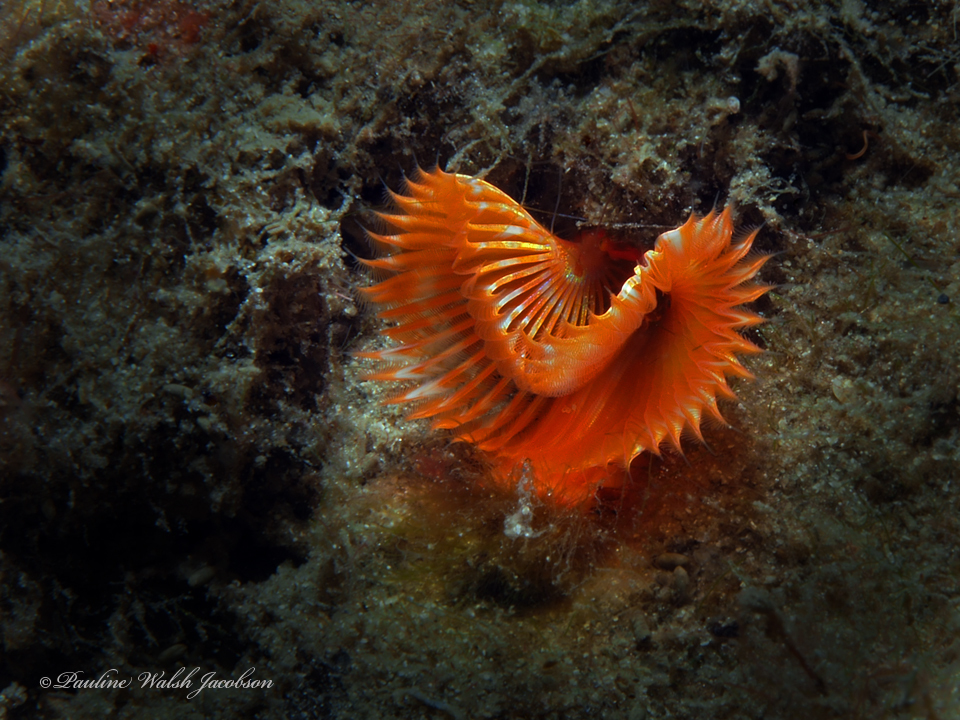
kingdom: Animalia
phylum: Annelida
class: Polychaeta
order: Sabellida
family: Serpulidae
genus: Pomatostegus
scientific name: Pomatostegus stellatus
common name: Star tubeworm
